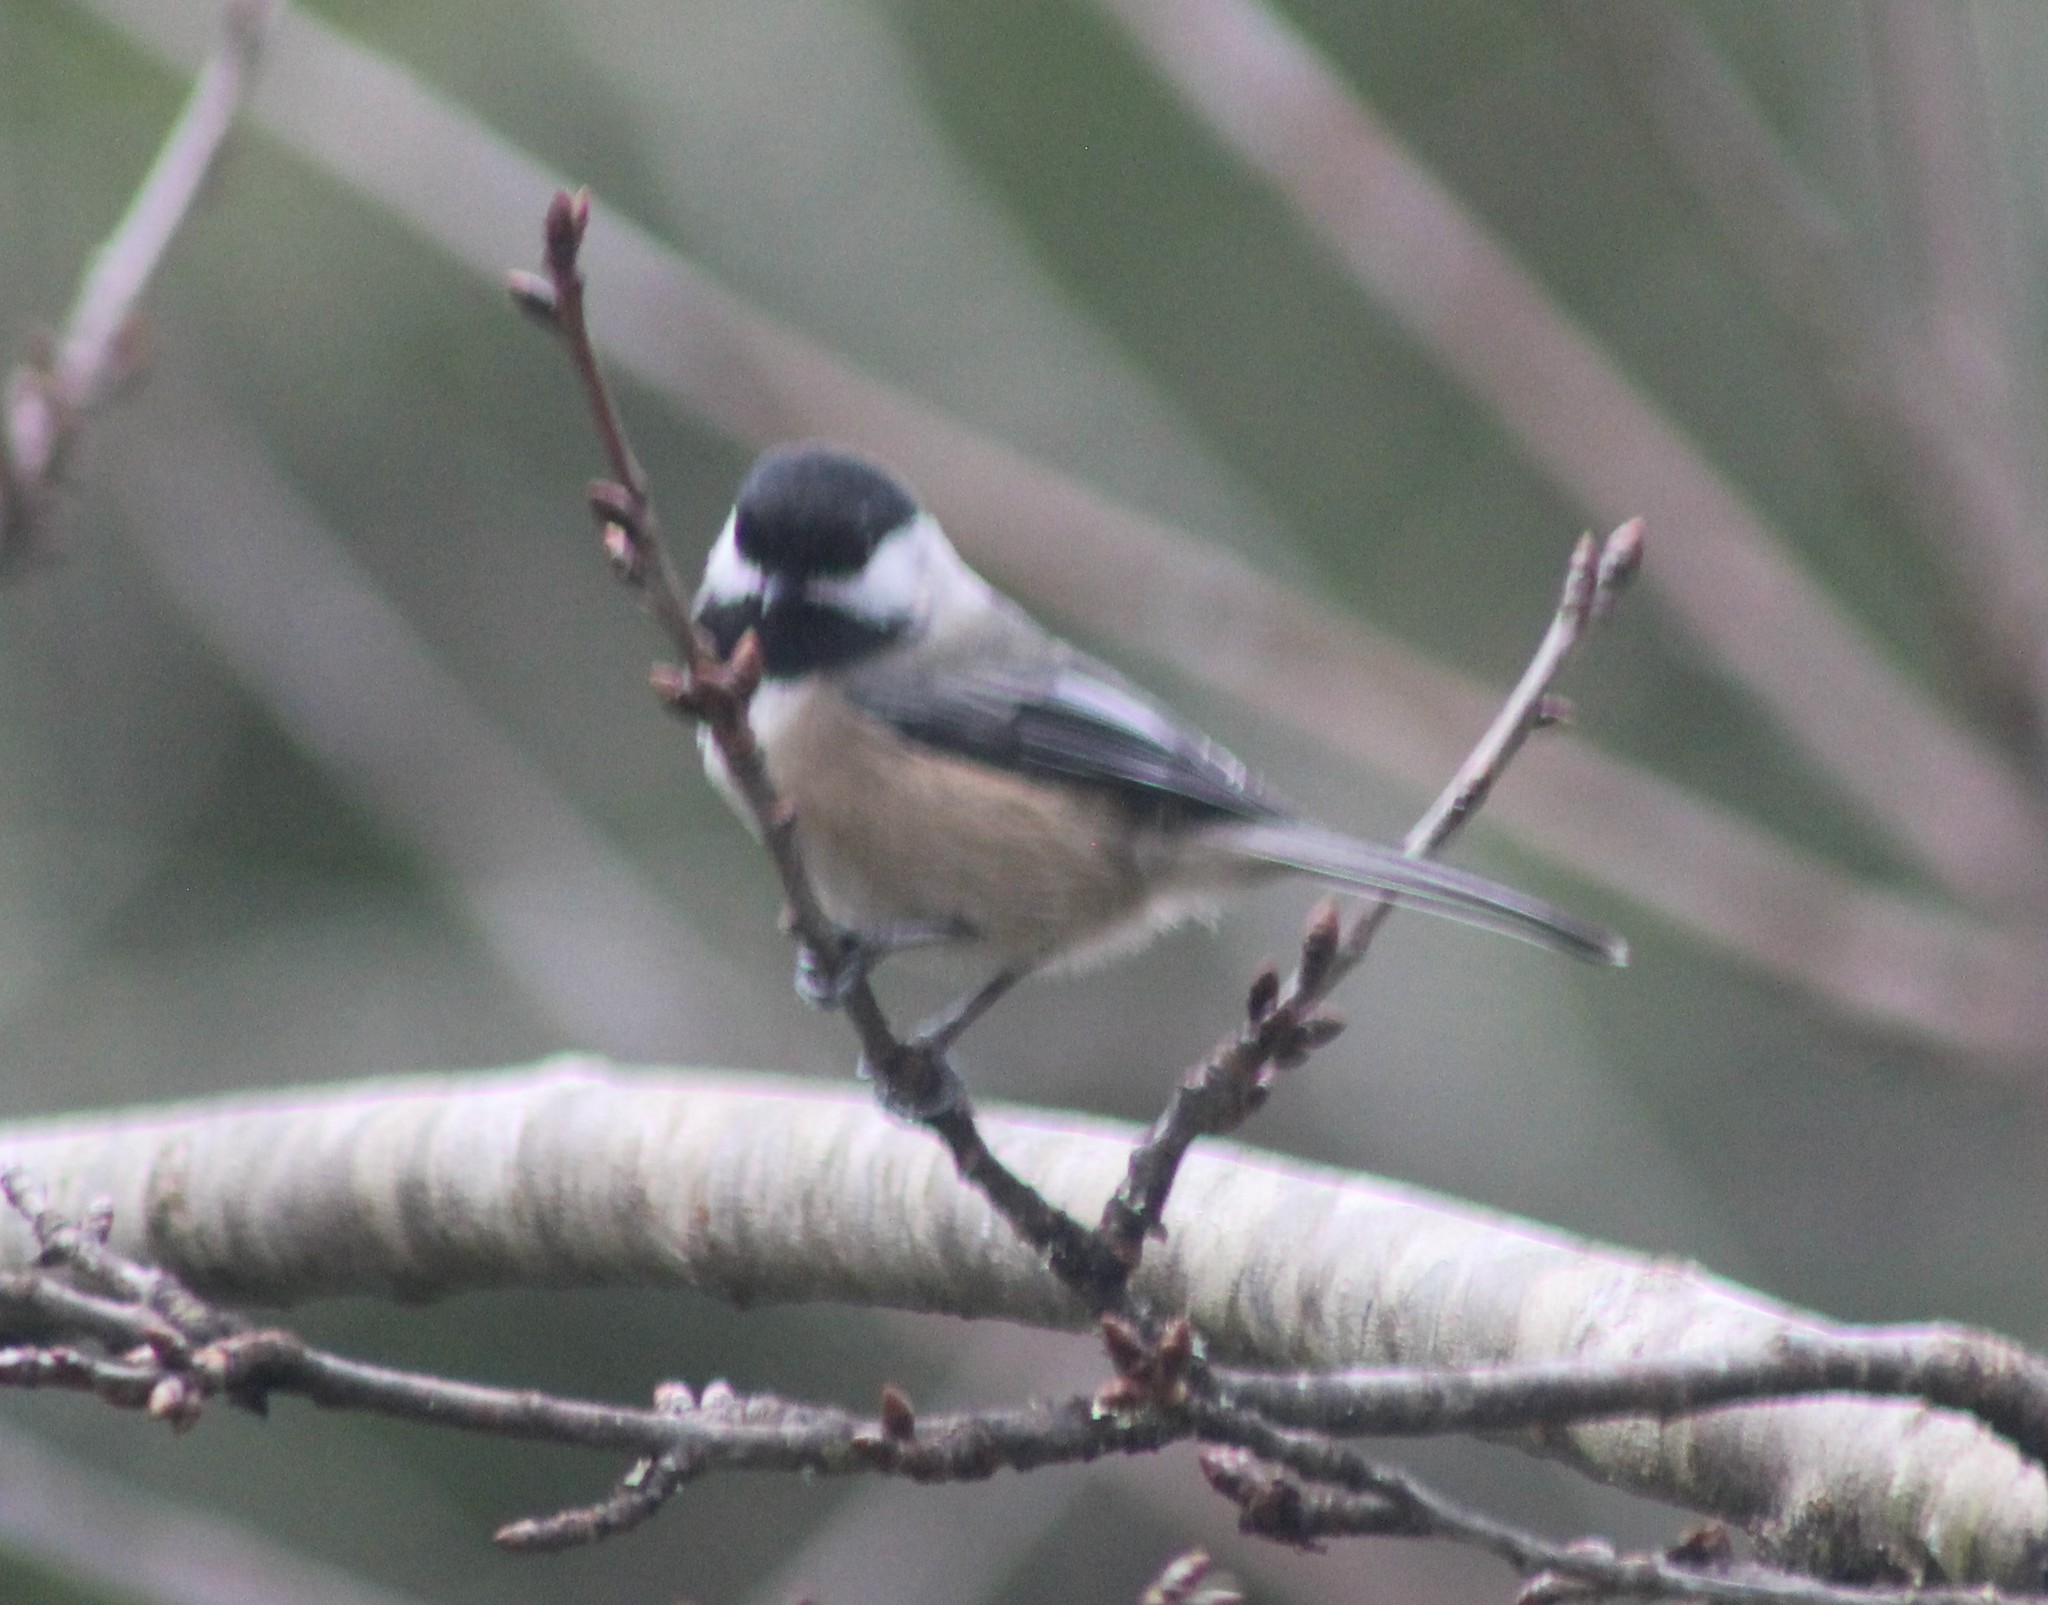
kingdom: Animalia
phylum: Chordata
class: Aves
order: Passeriformes
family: Paridae
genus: Poecile
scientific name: Poecile atricapillus
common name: Black-capped chickadee
